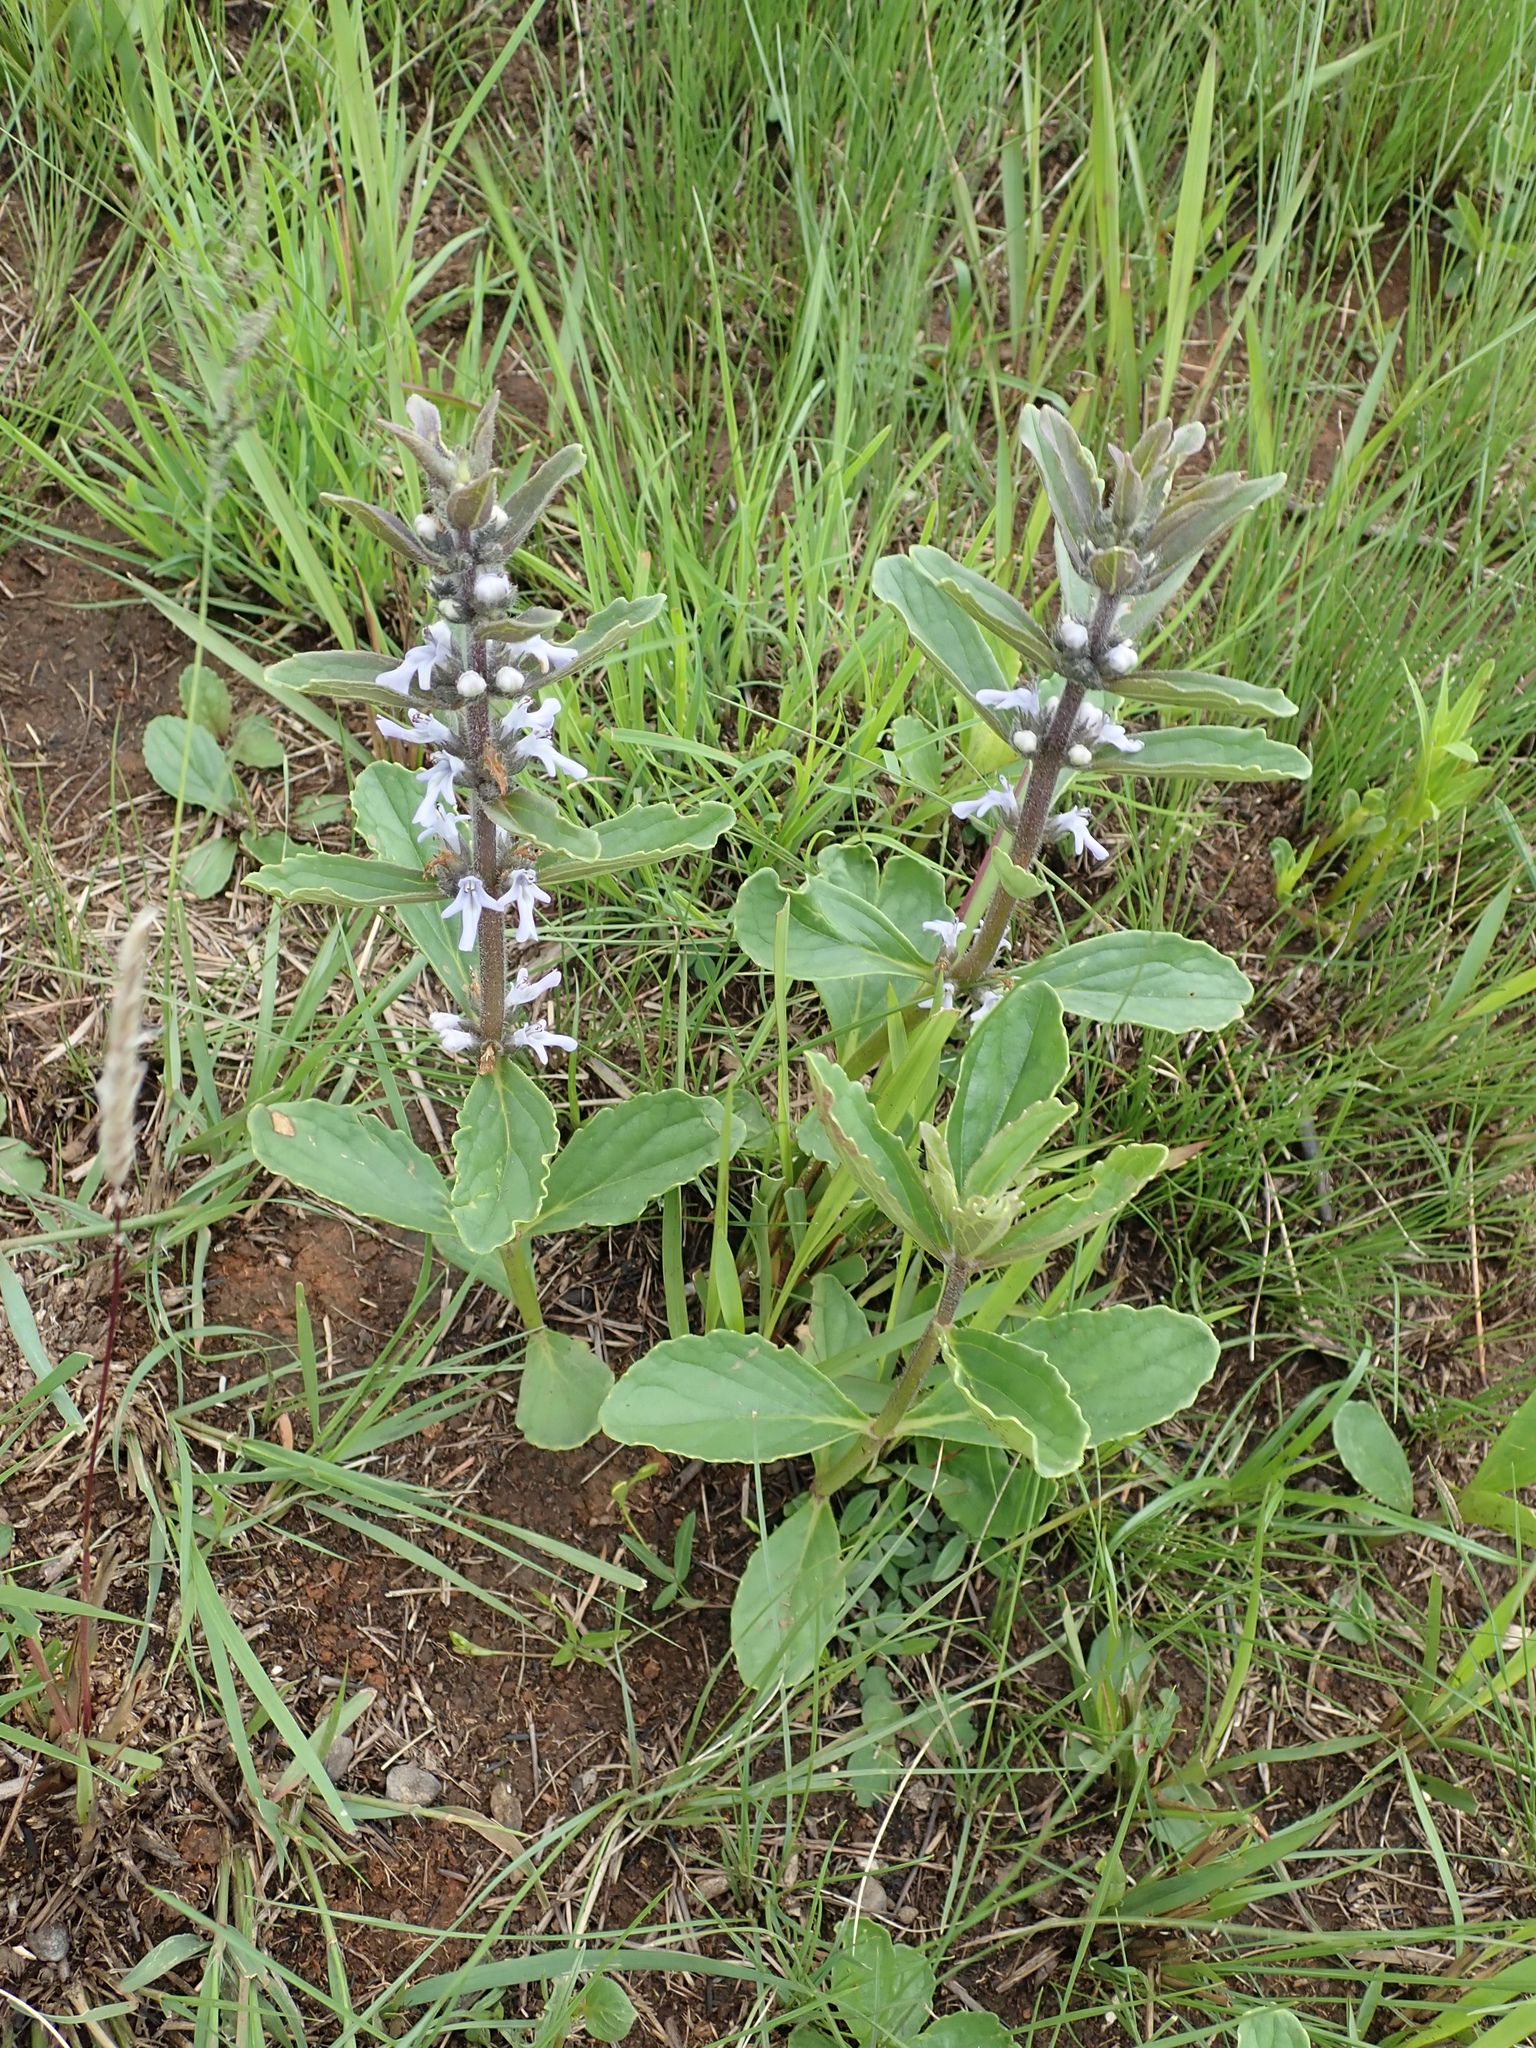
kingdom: Plantae
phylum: Tracheophyta
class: Magnoliopsida
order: Lamiales
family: Lamiaceae
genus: Ajuga
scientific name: Ajuga ophrydis
